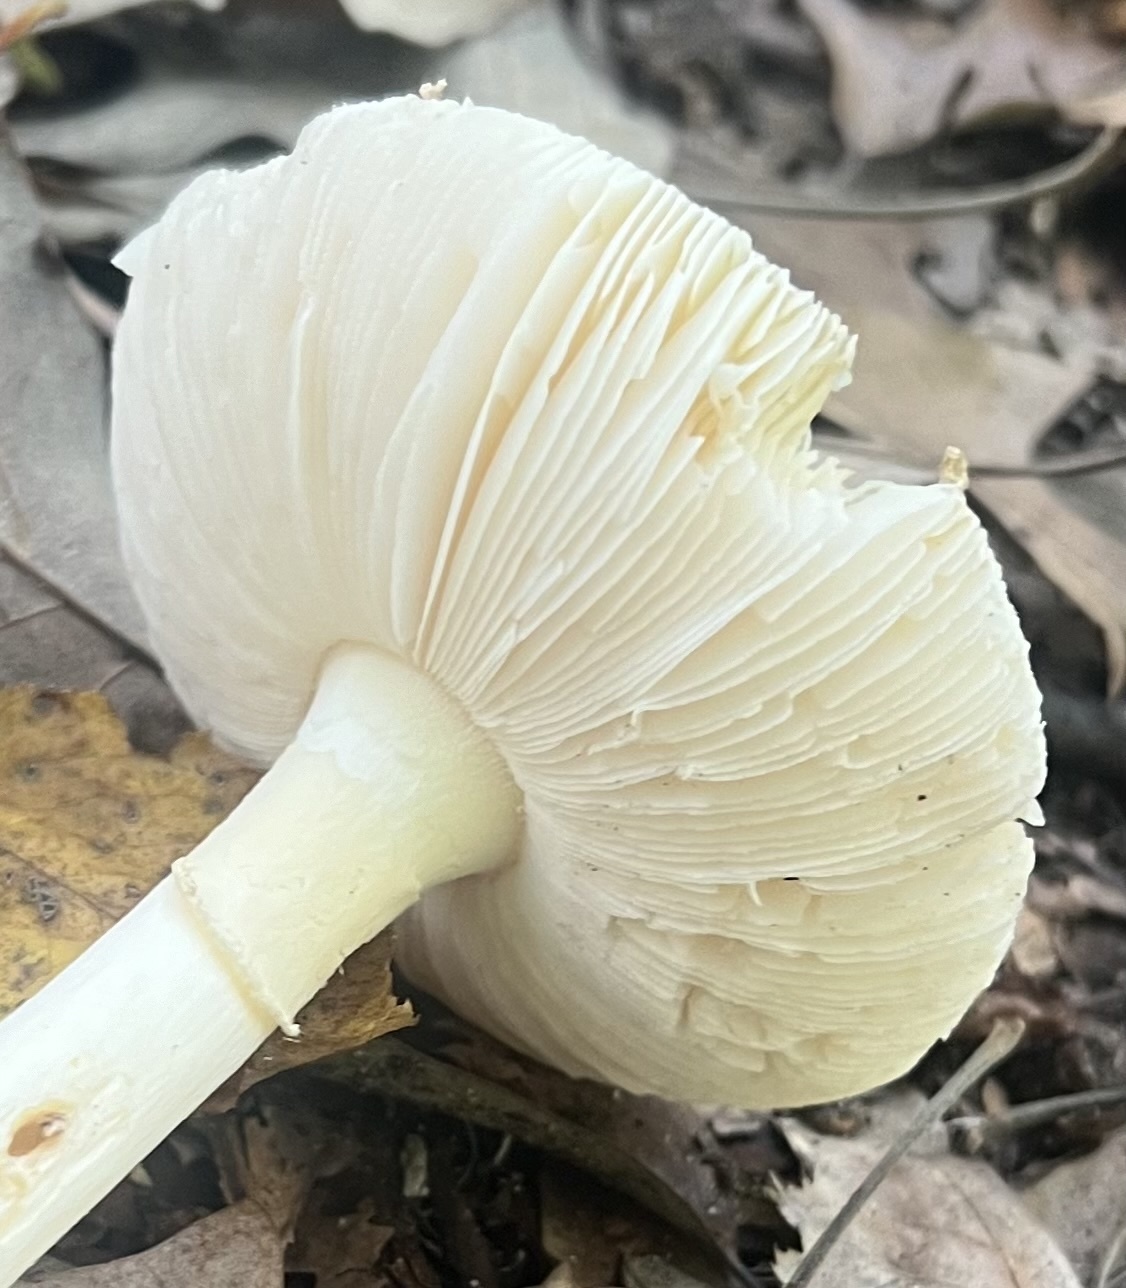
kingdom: Fungi
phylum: Basidiomycota
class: Agaricomycetes
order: Agaricales
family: Amanitaceae
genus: Amanita
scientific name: Amanita crenulata
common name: Poison champagne amanita
